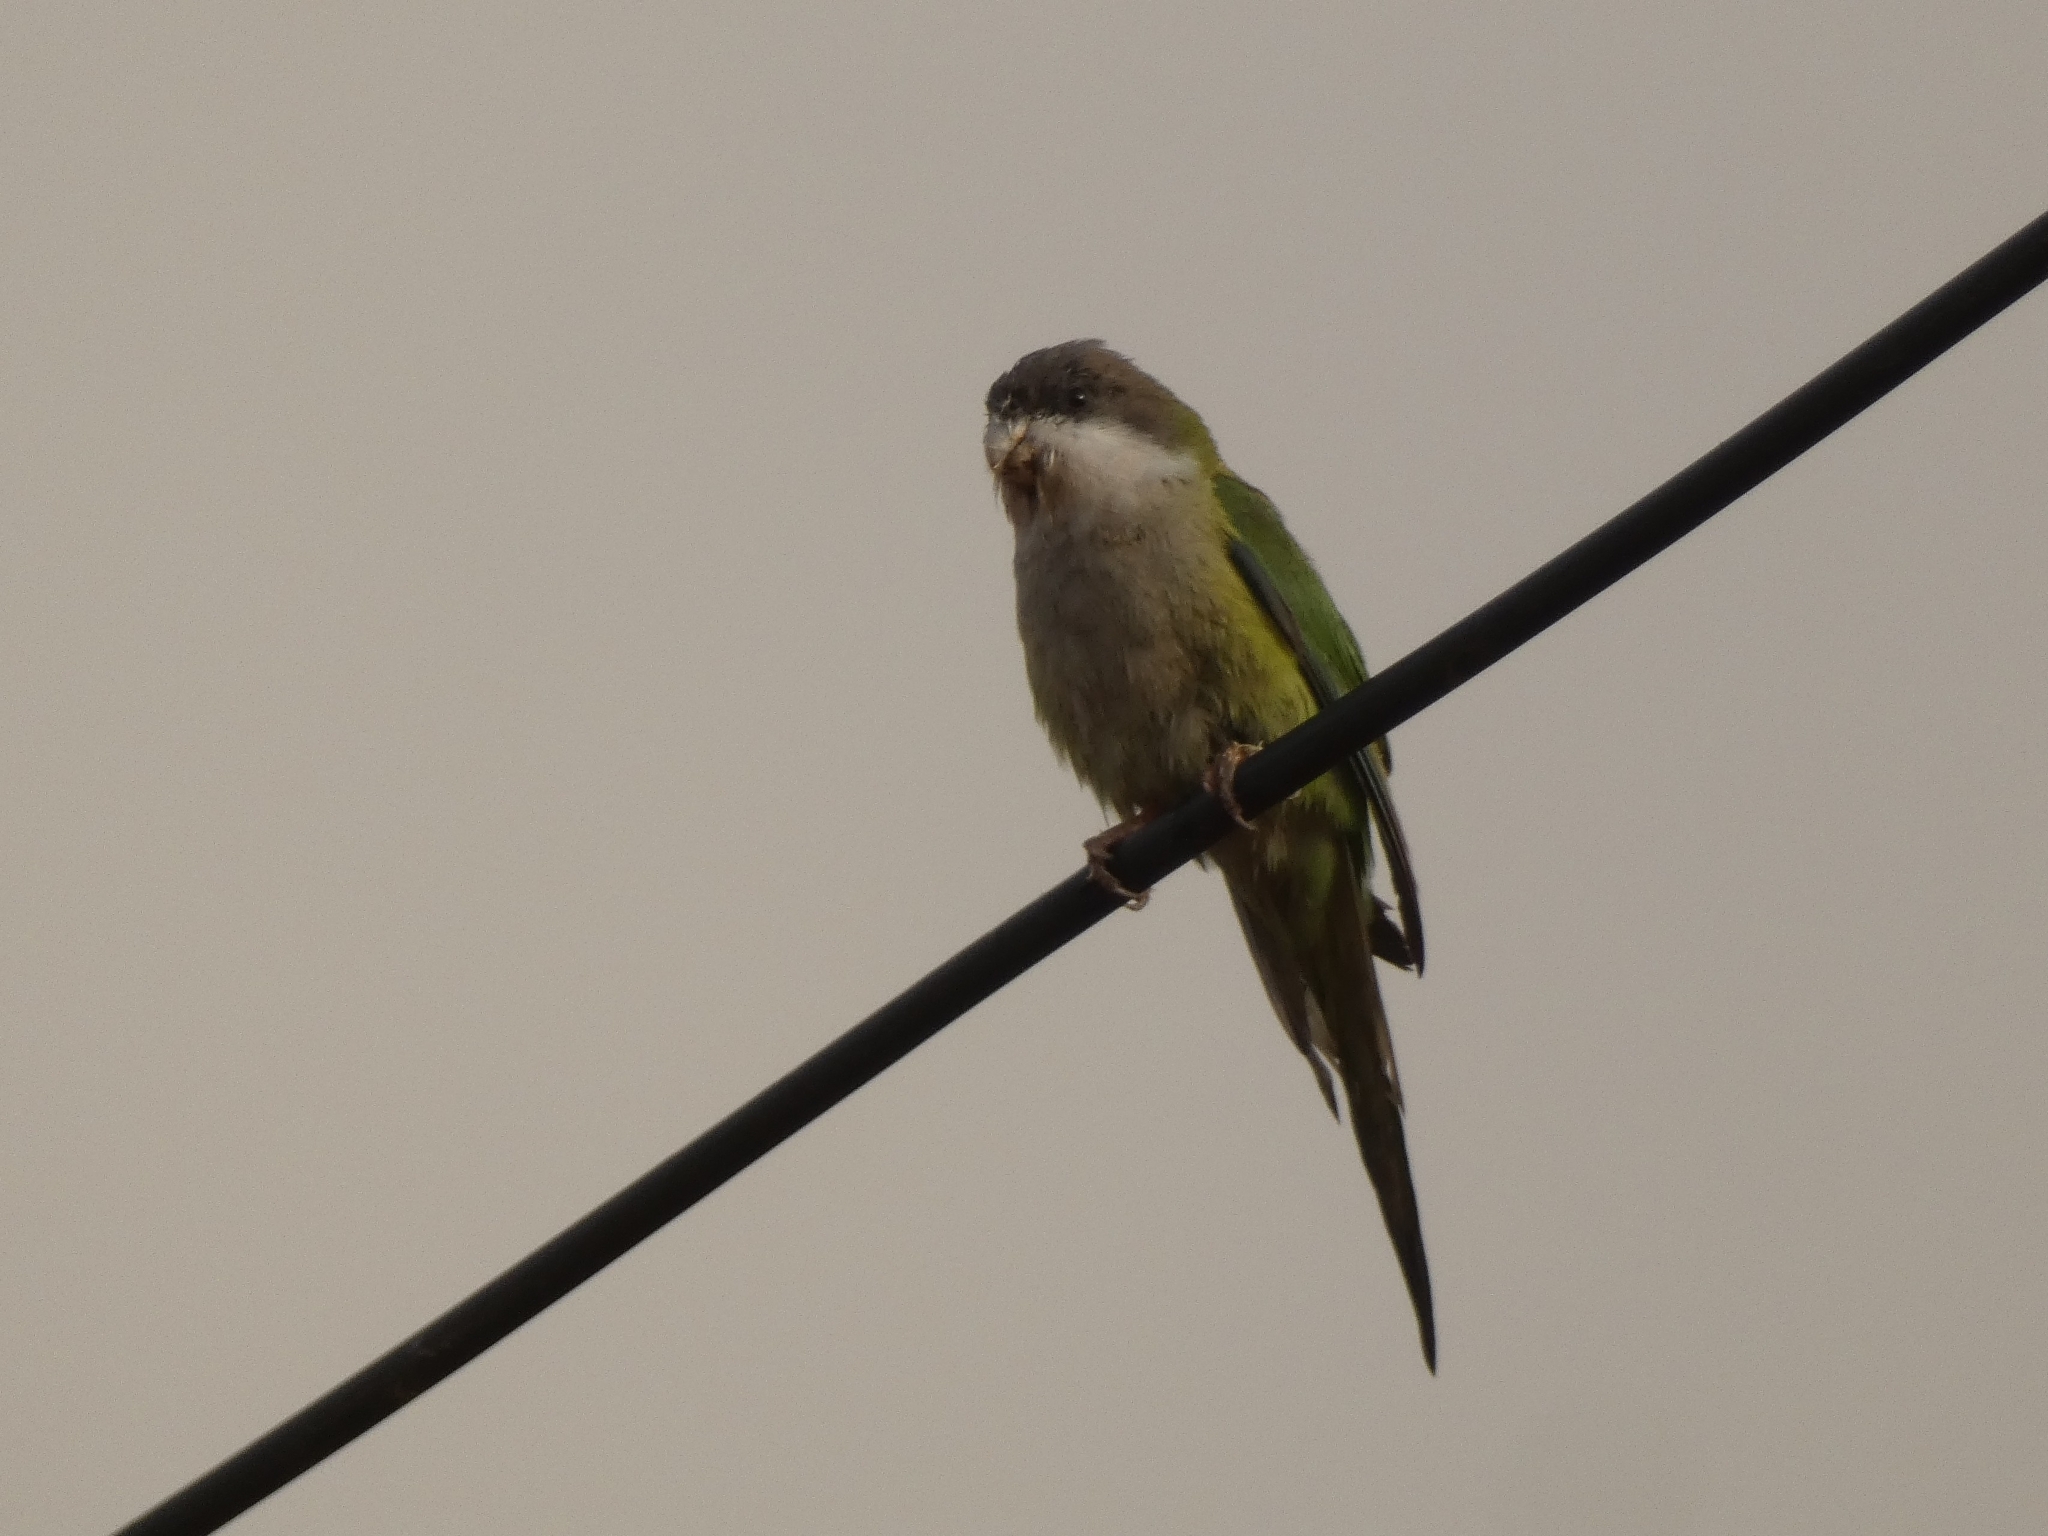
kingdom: Animalia
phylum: Chordata
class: Aves
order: Psittaciformes
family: Psittacidae
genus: Psilopsiagon
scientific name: Psilopsiagon aymara
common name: Grey-hooded parakeet
